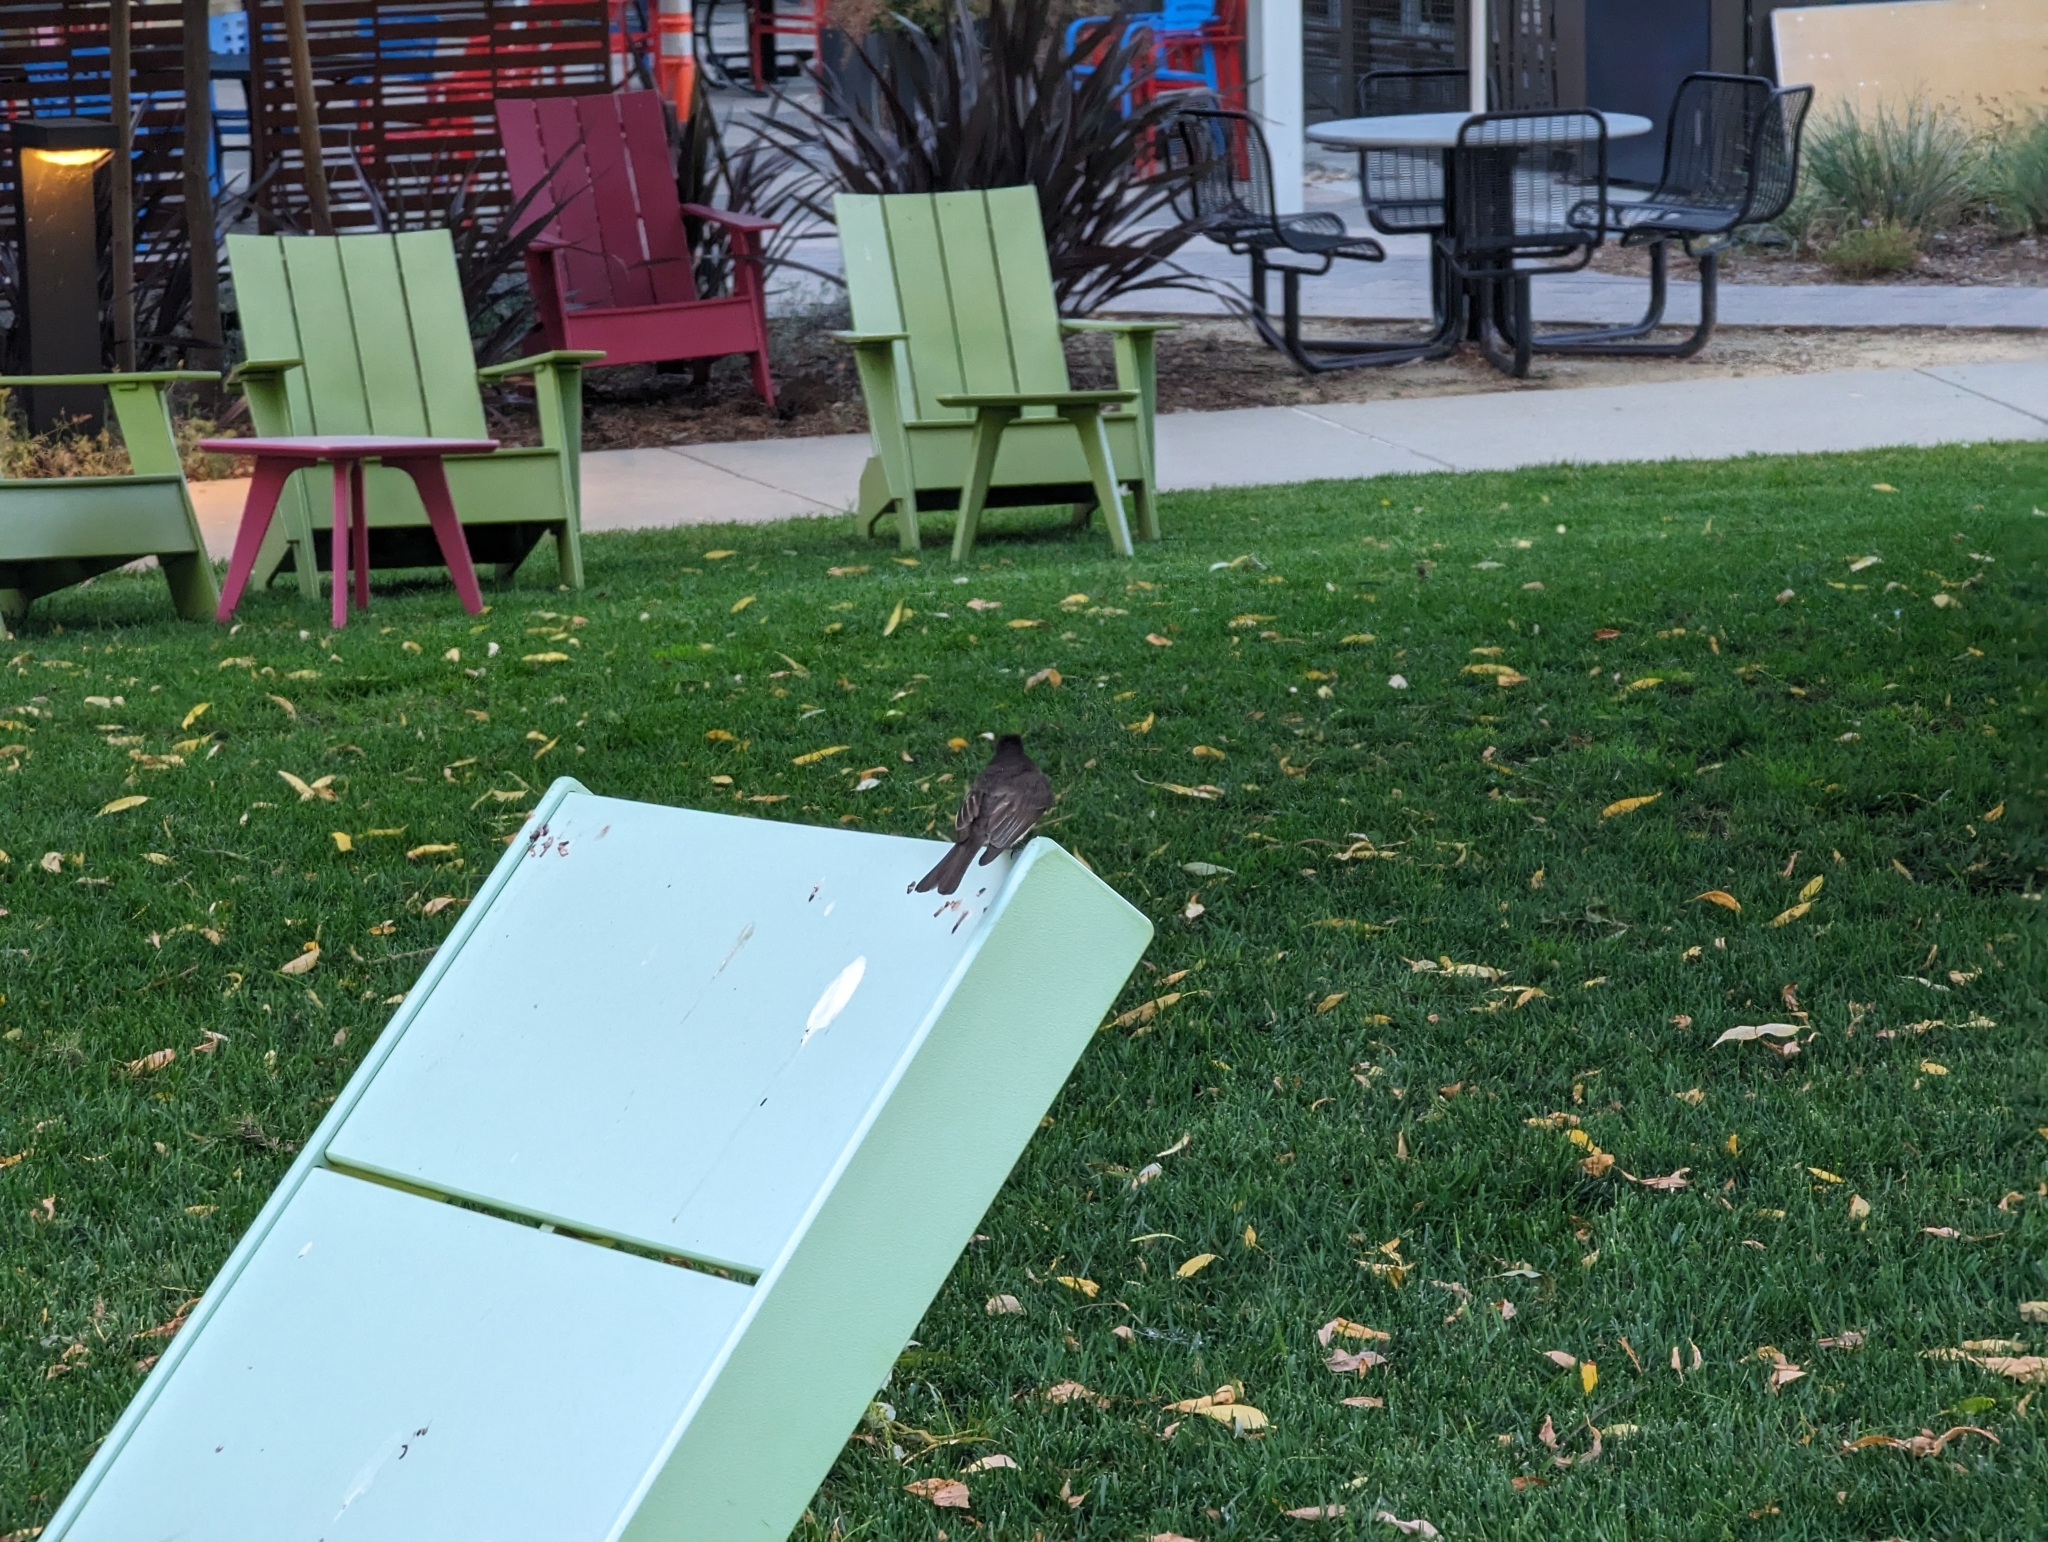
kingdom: Animalia
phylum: Chordata
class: Aves
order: Passeriformes
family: Tyrannidae
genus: Sayornis
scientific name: Sayornis nigricans
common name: Black phoebe
